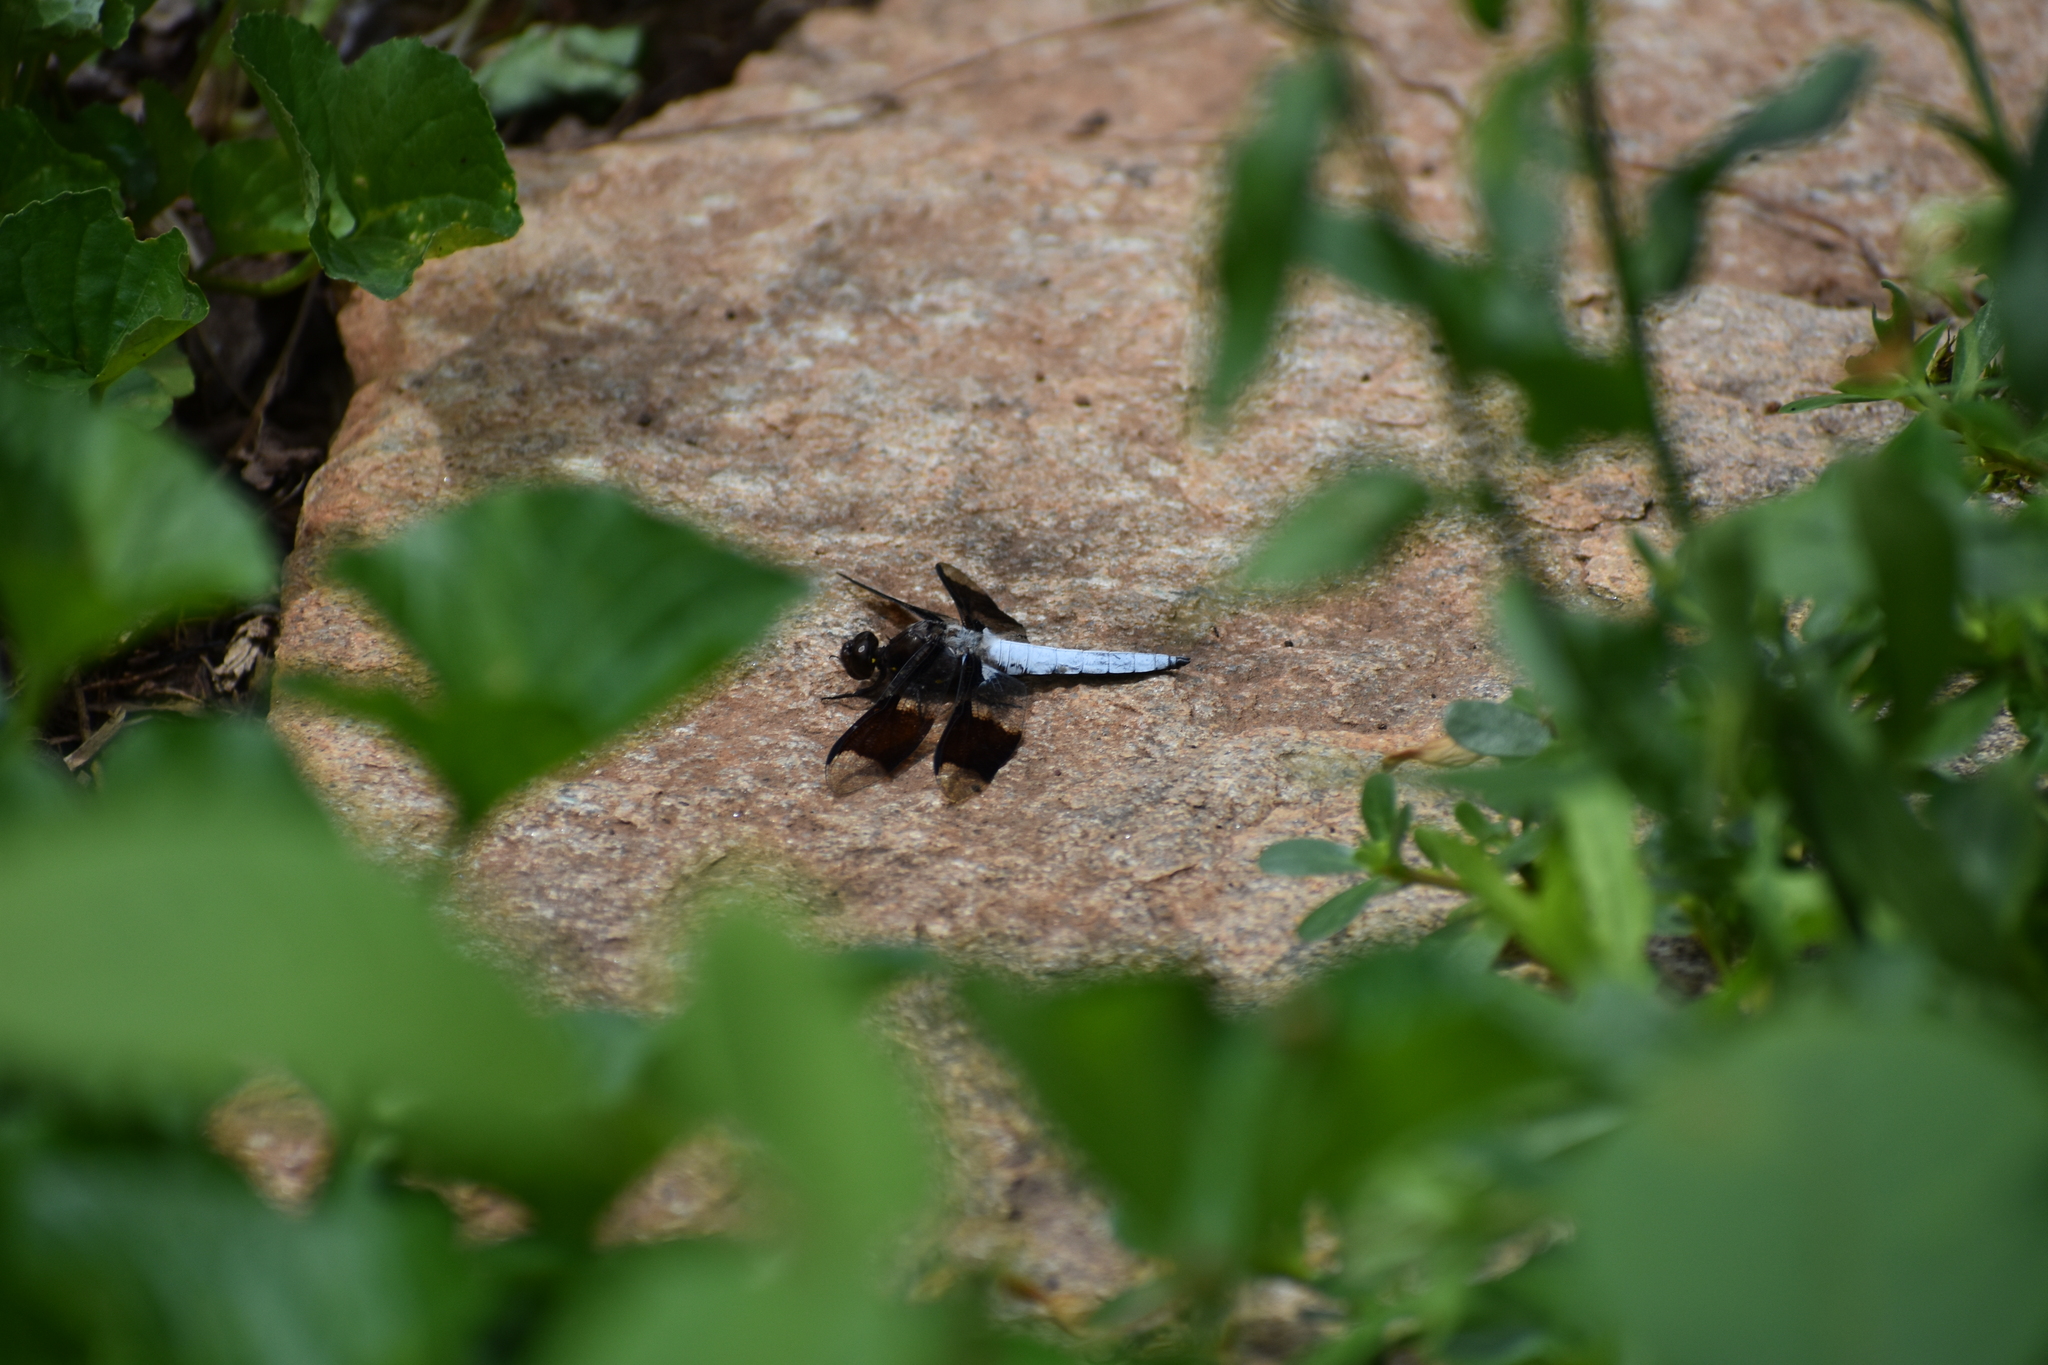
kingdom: Animalia
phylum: Arthropoda
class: Insecta
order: Odonata
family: Libellulidae
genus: Plathemis
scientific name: Plathemis lydia
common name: Common whitetail
